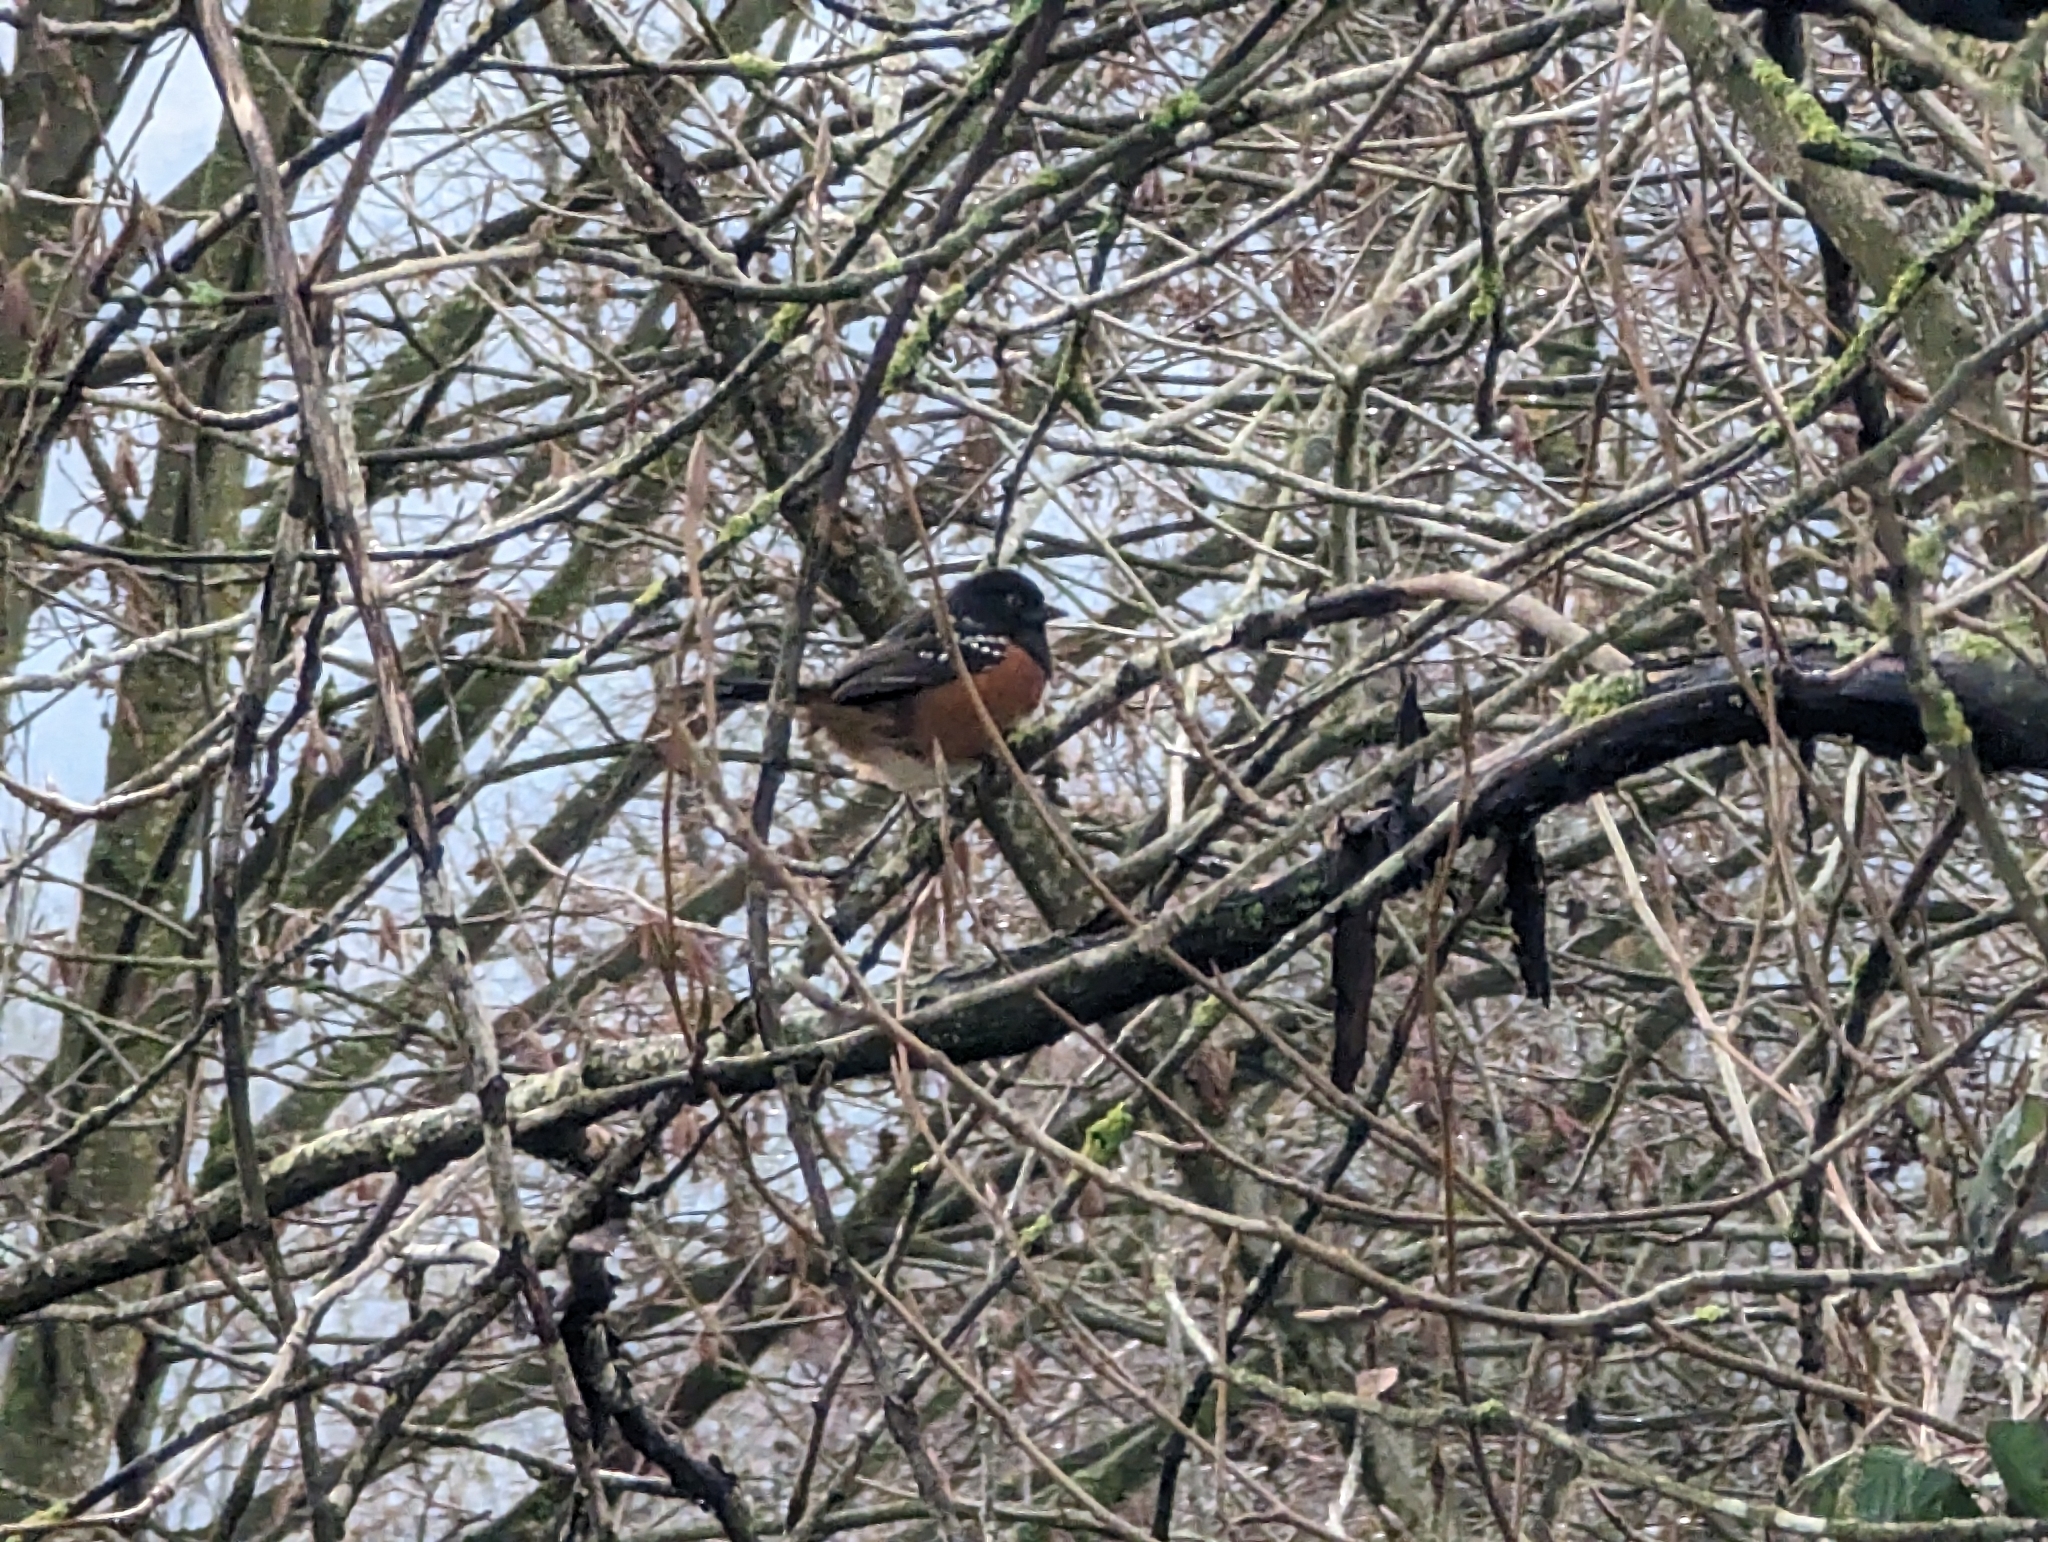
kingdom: Animalia
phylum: Chordata
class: Aves
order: Passeriformes
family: Passerellidae
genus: Pipilo
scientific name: Pipilo maculatus
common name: Spotted towhee
